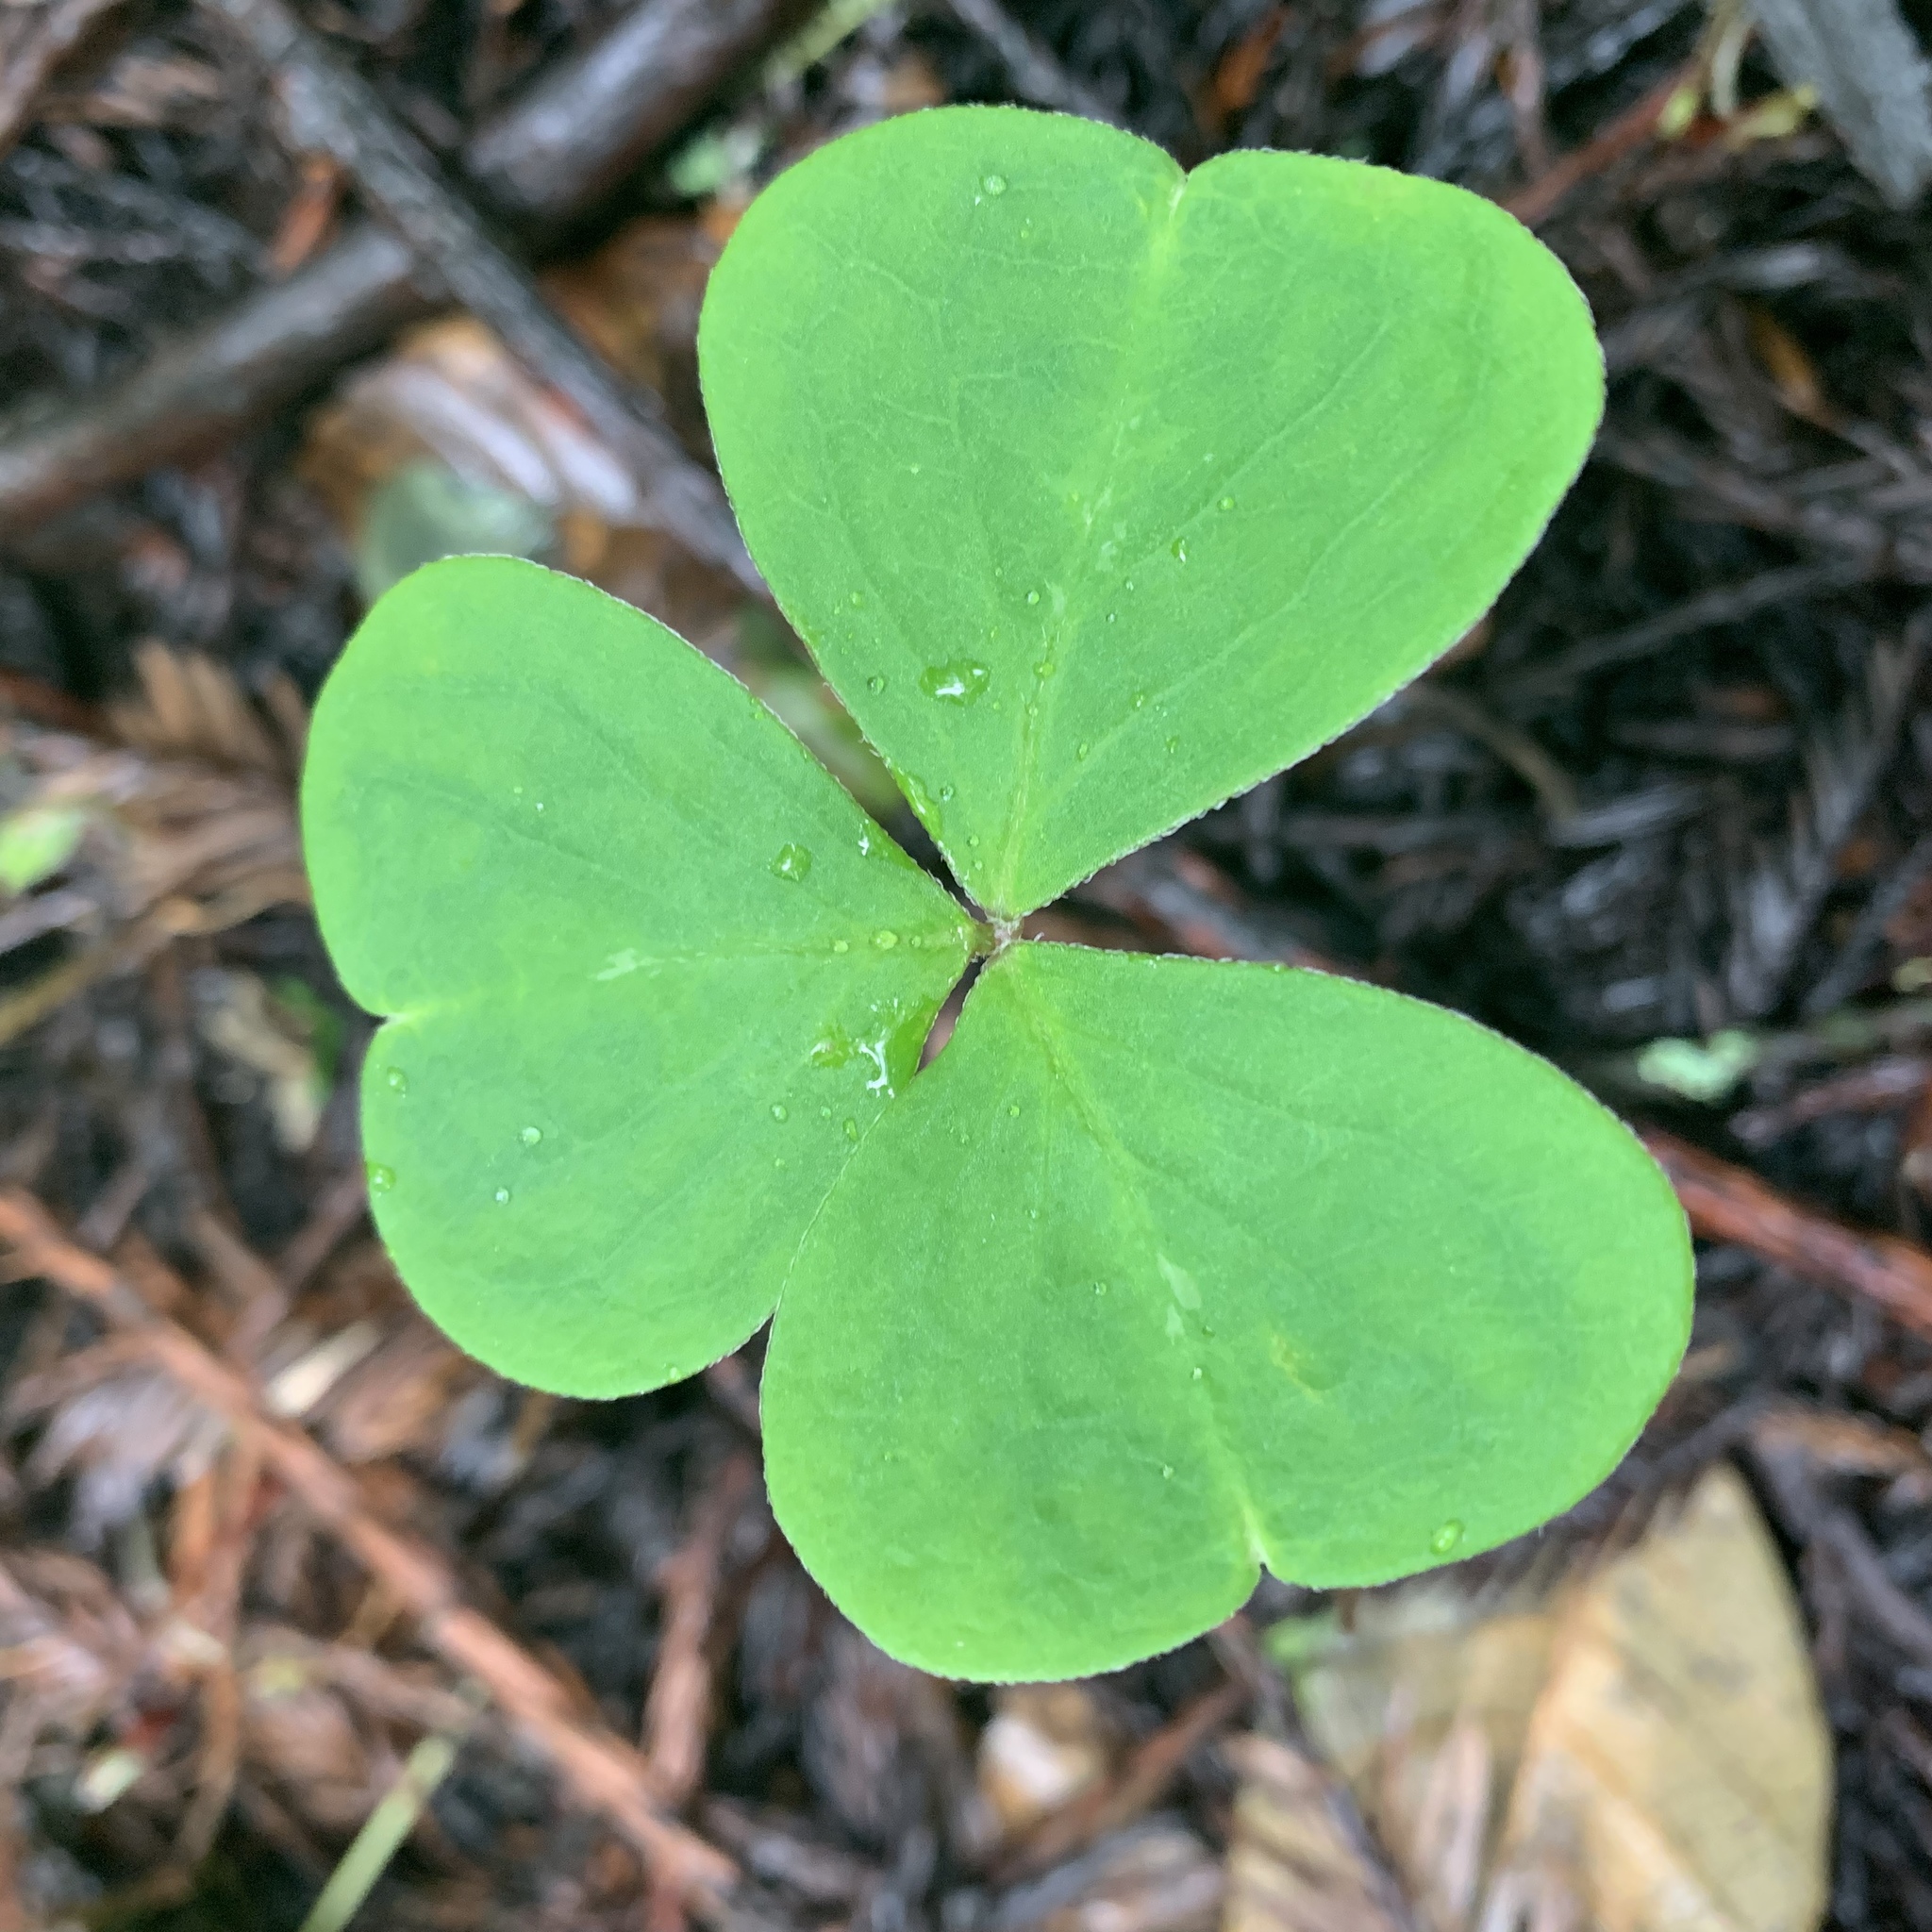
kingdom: Plantae
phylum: Tracheophyta
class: Magnoliopsida
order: Oxalidales
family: Oxalidaceae
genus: Oxalis
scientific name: Oxalis oregana
